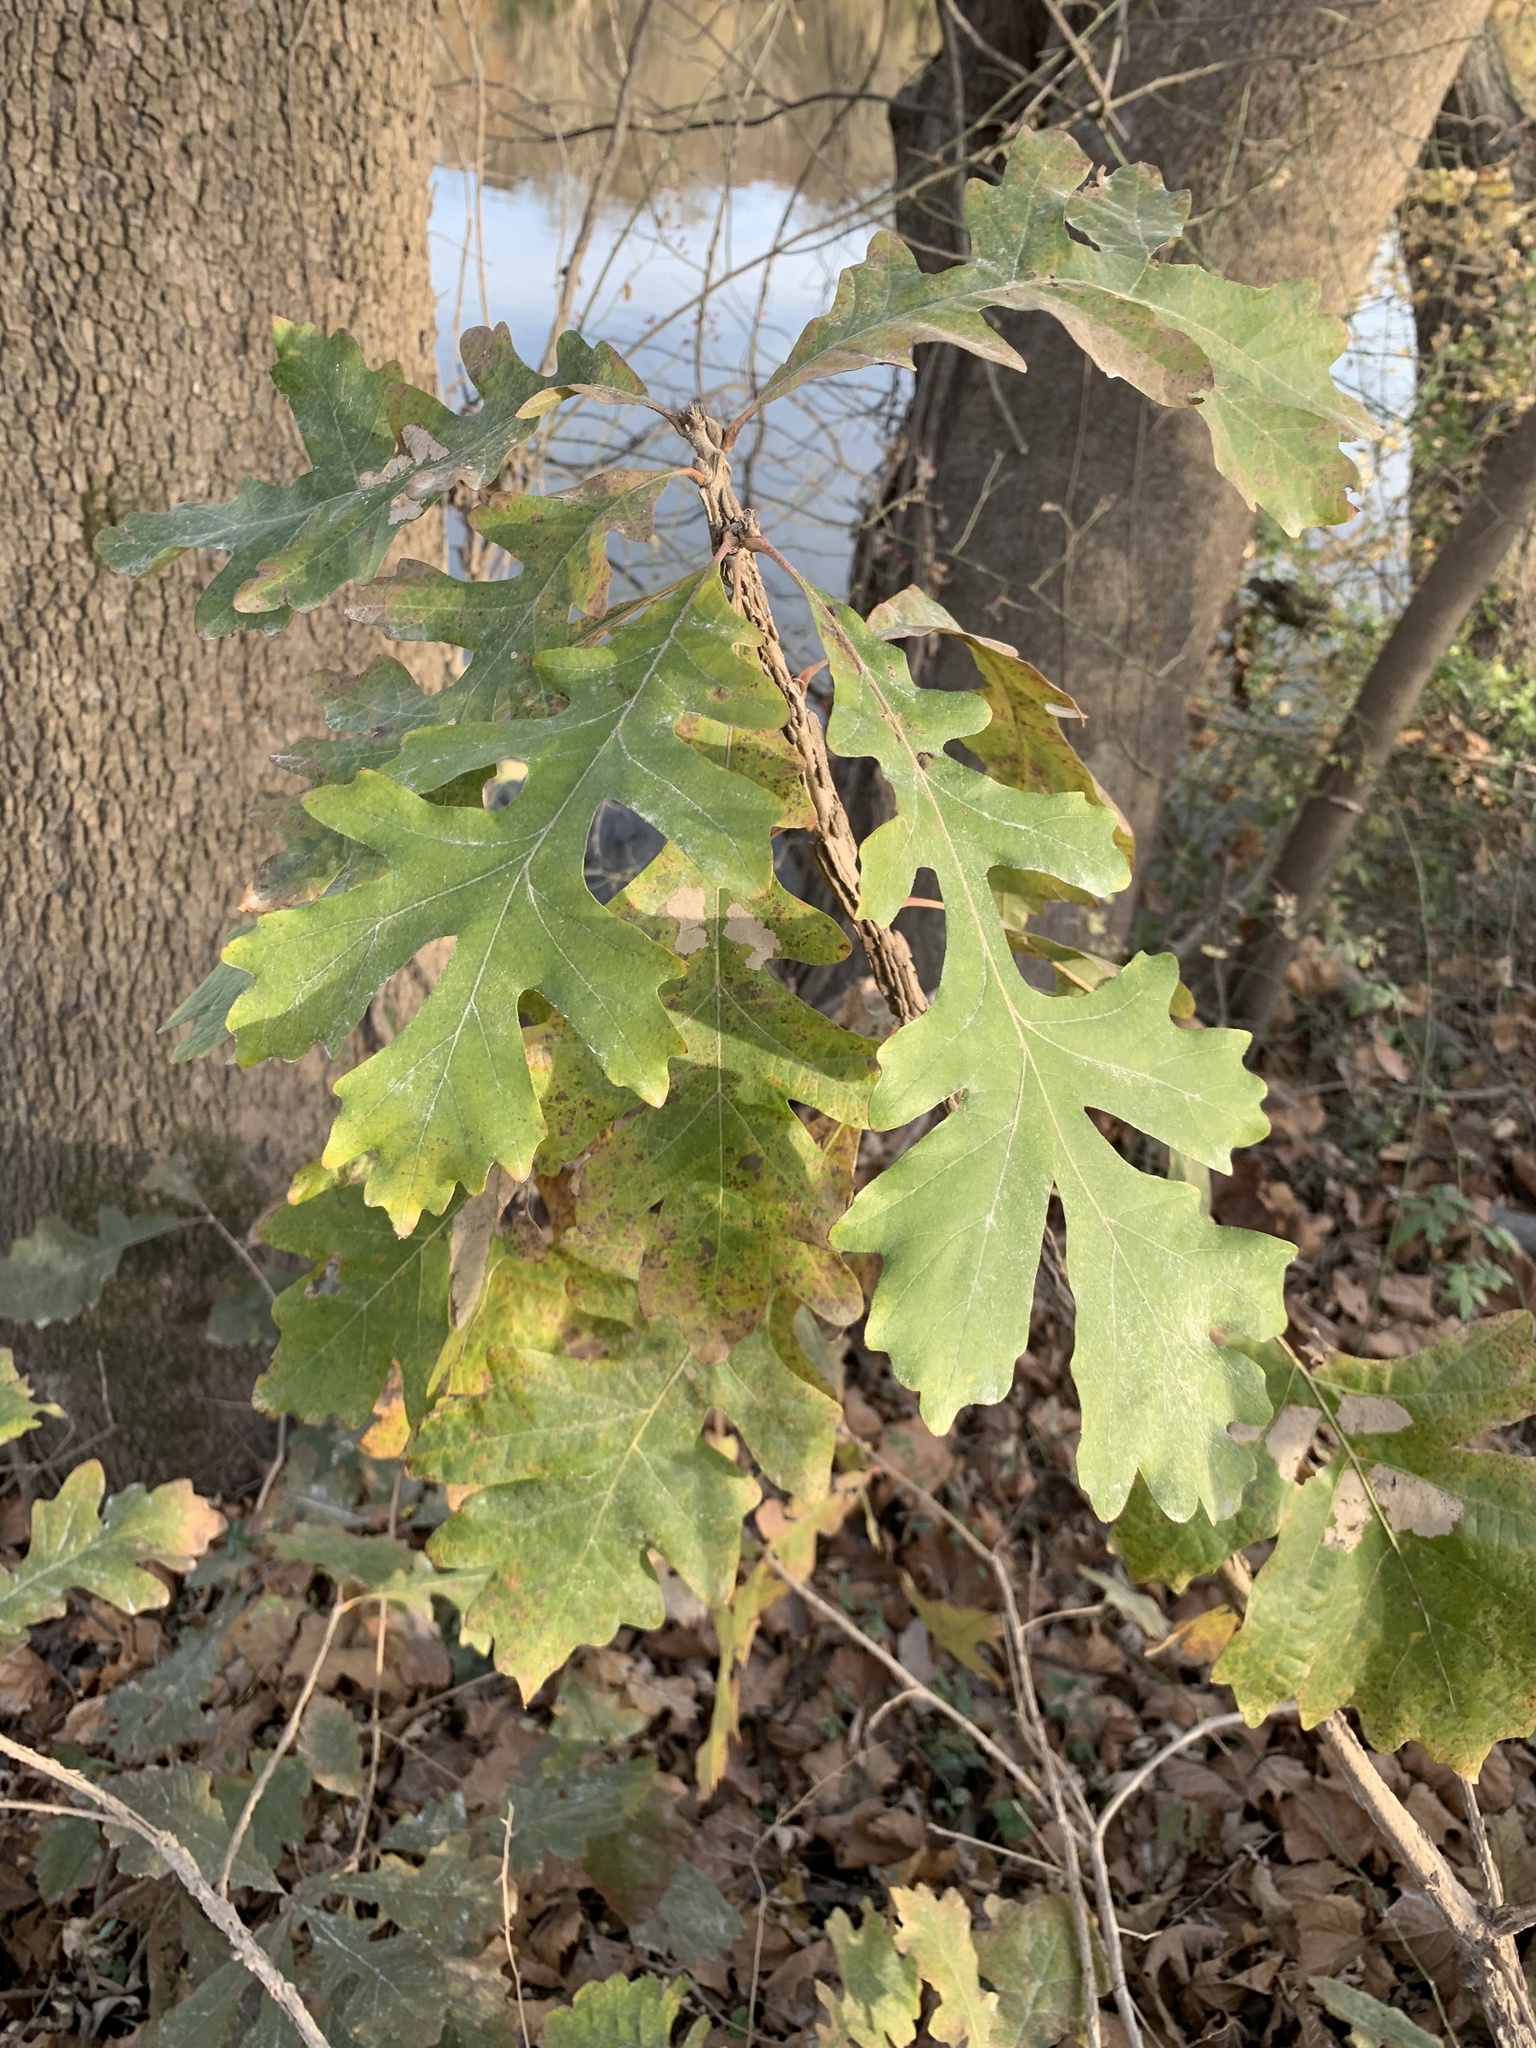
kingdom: Plantae
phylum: Tracheophyta
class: Magnoliopsida
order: Fagales
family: Fagaceae
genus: Quercus
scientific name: Quercus macrocarpa
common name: Bur oak
